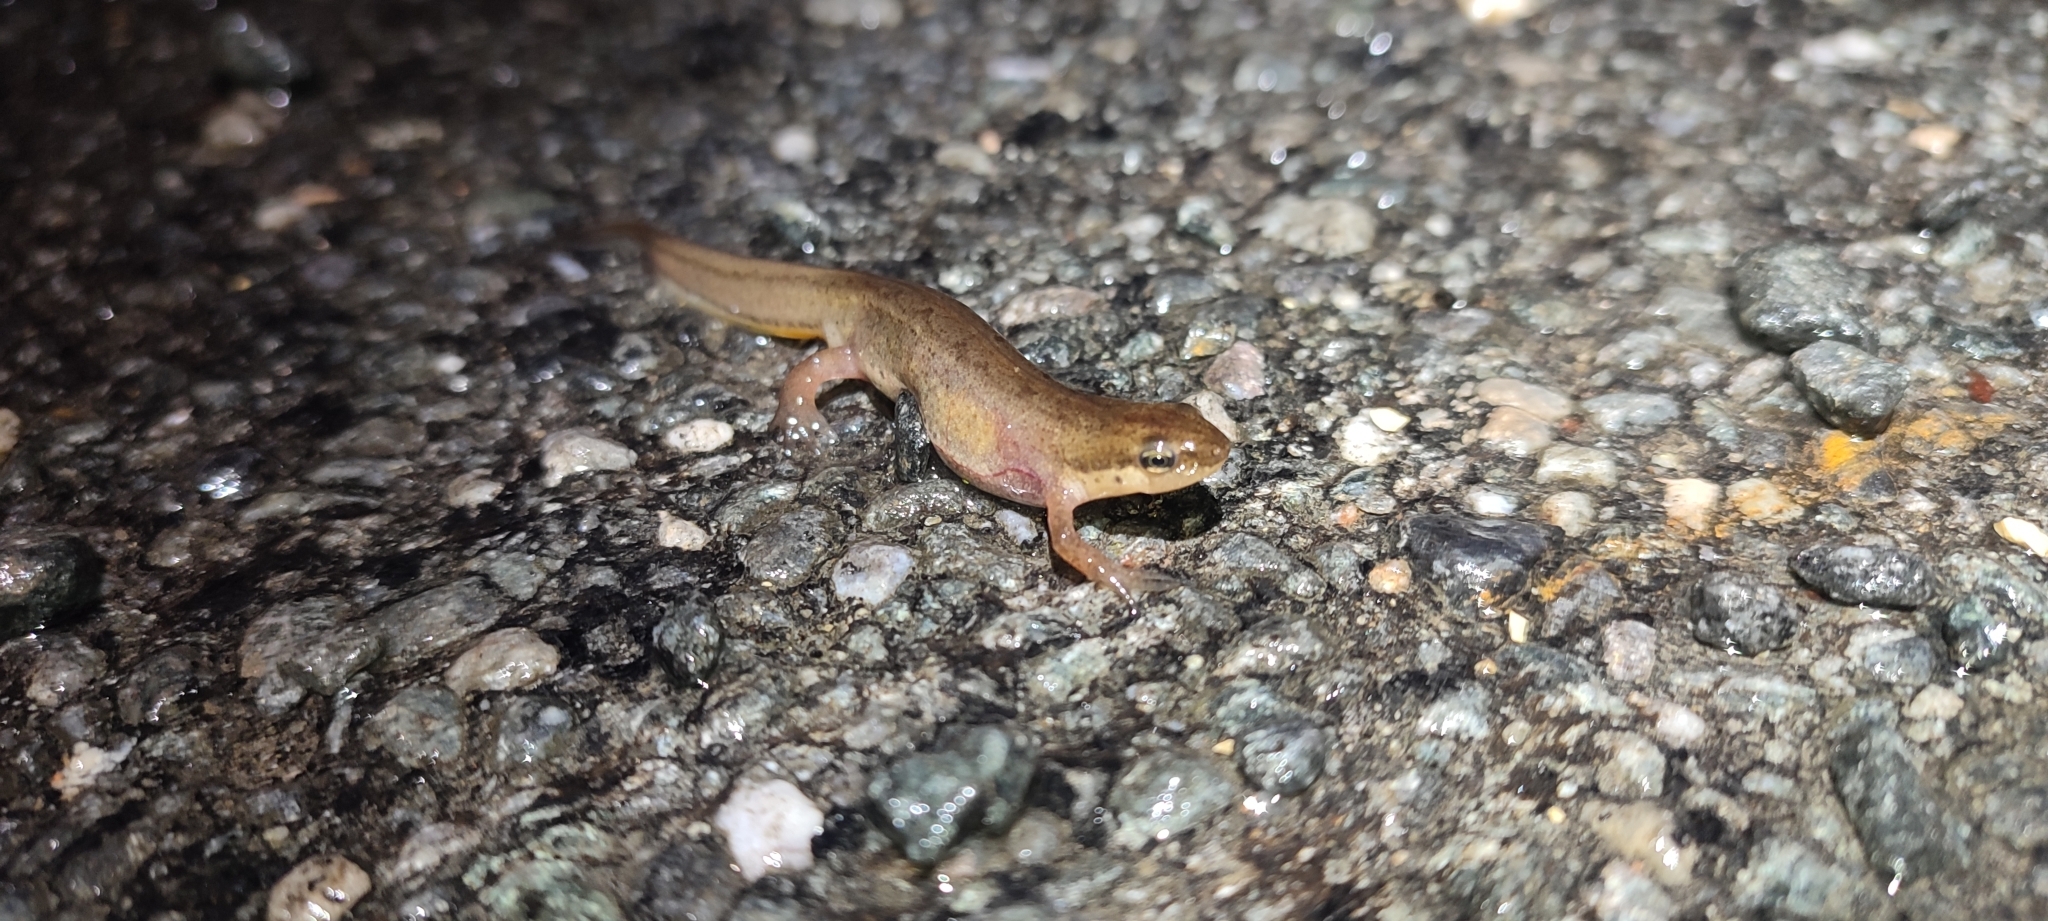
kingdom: Animalia
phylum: Chordata
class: Amphibia
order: Caudata
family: Salamandridae
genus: Lissotriton
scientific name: Lissotriton helveticus
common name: Palmate newt
